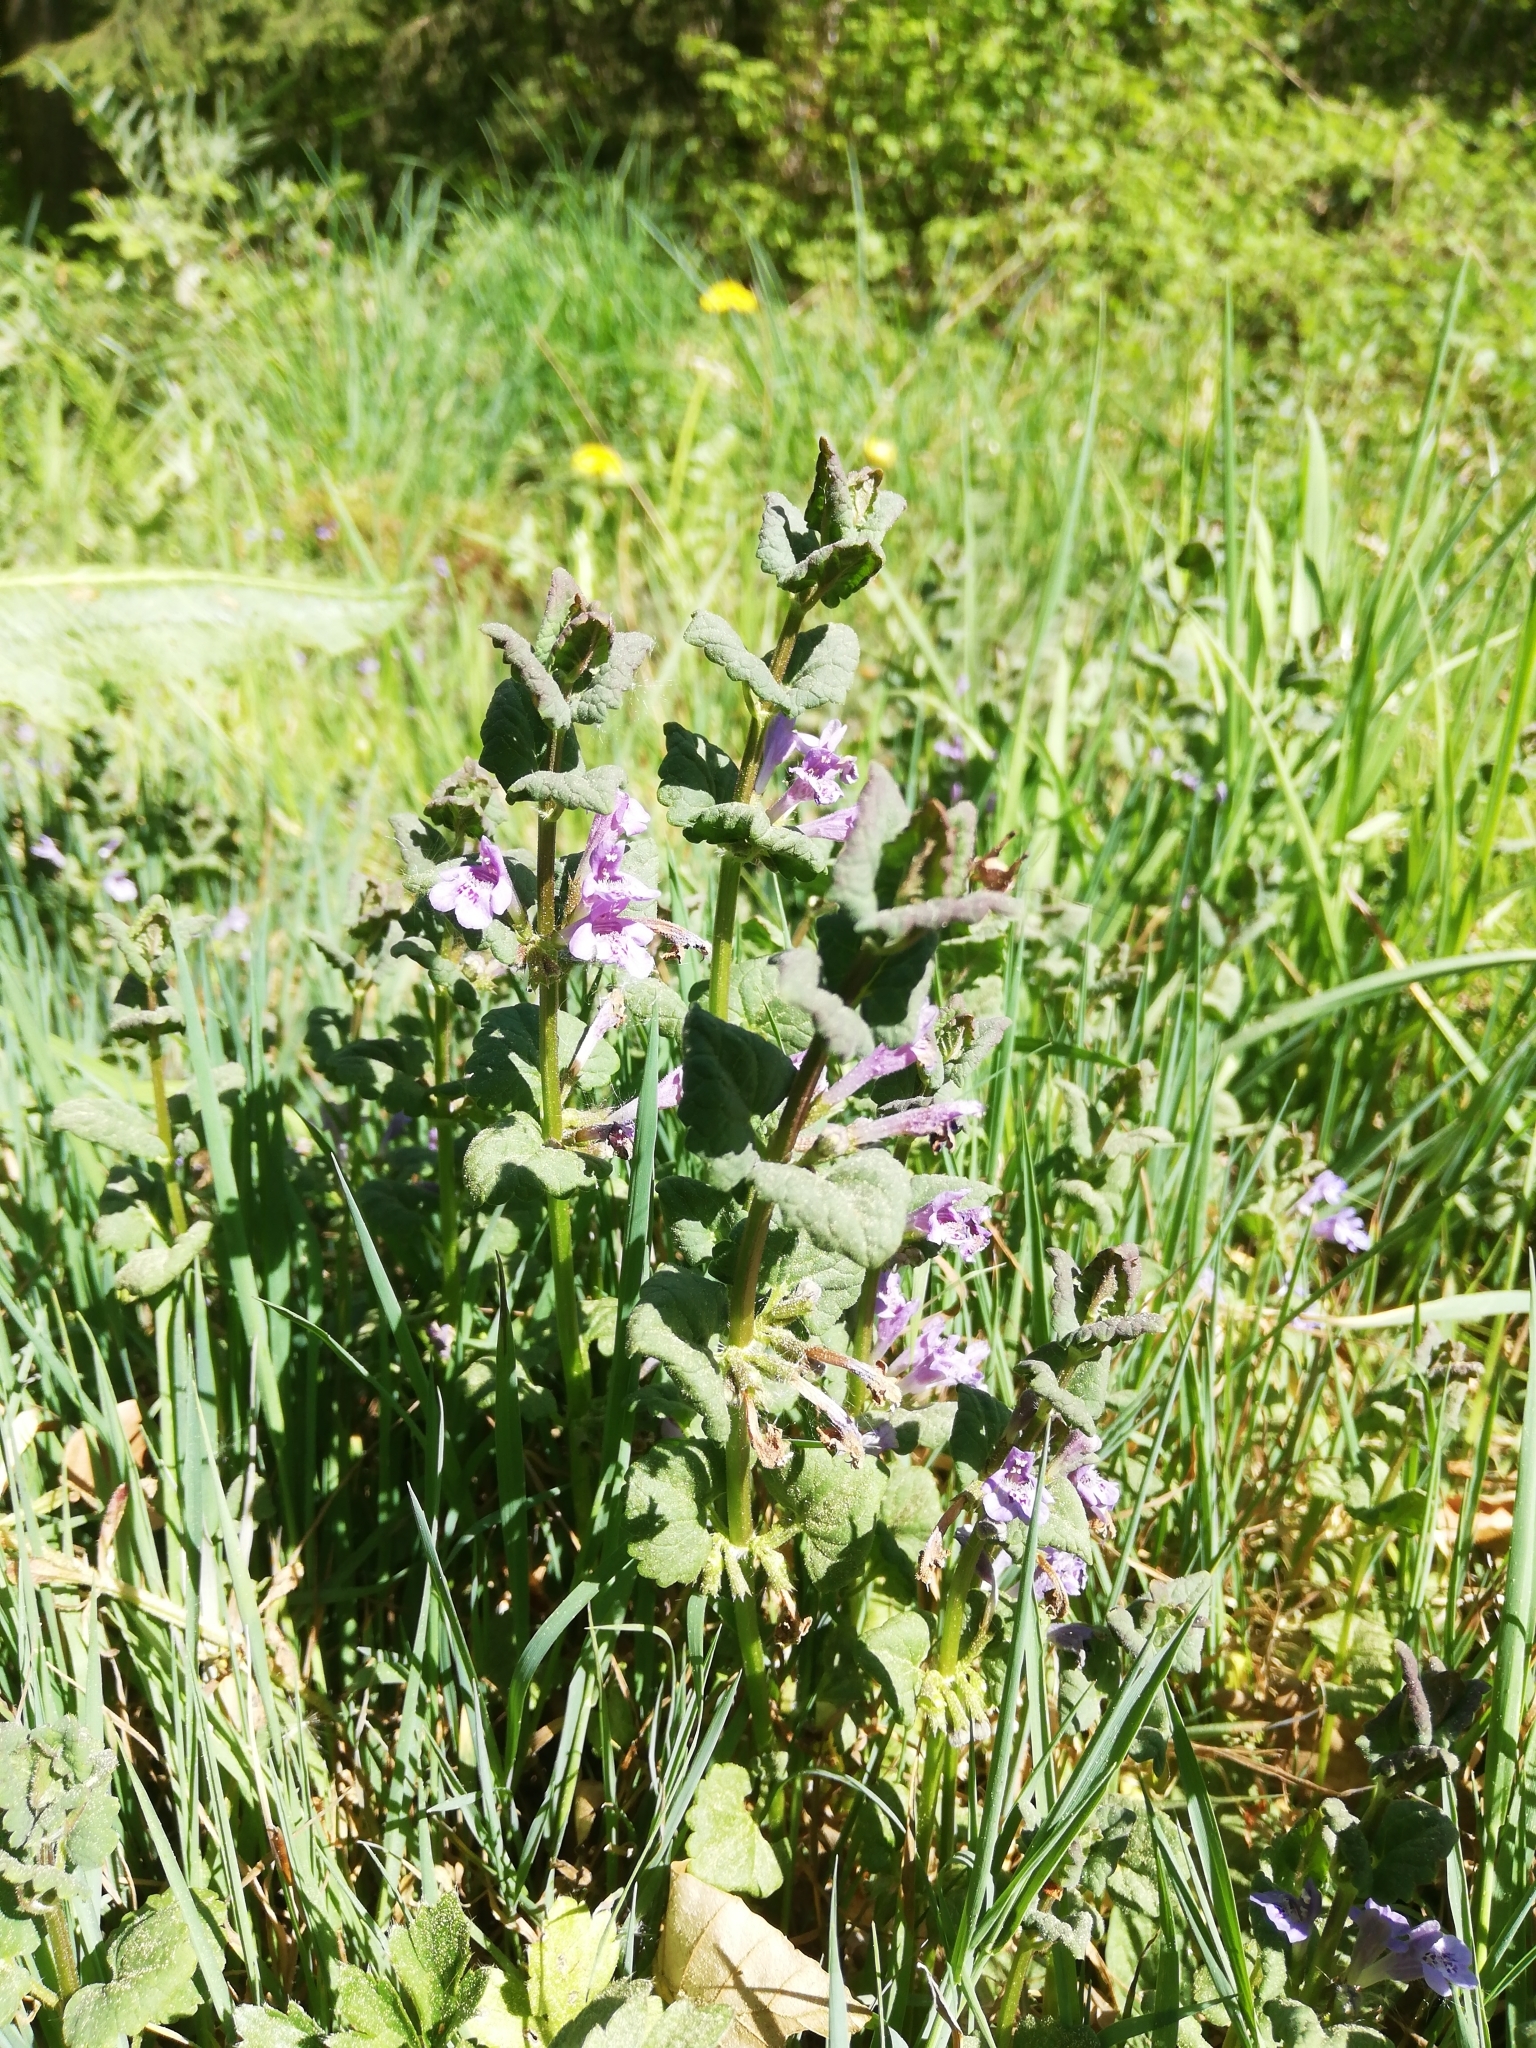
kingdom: Plantae
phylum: Tracheophyta
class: Magnoliopsida
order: Lamiales
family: Lamiaceae
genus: Glechoma
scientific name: Glechoma hederacea
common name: Ground ivy
